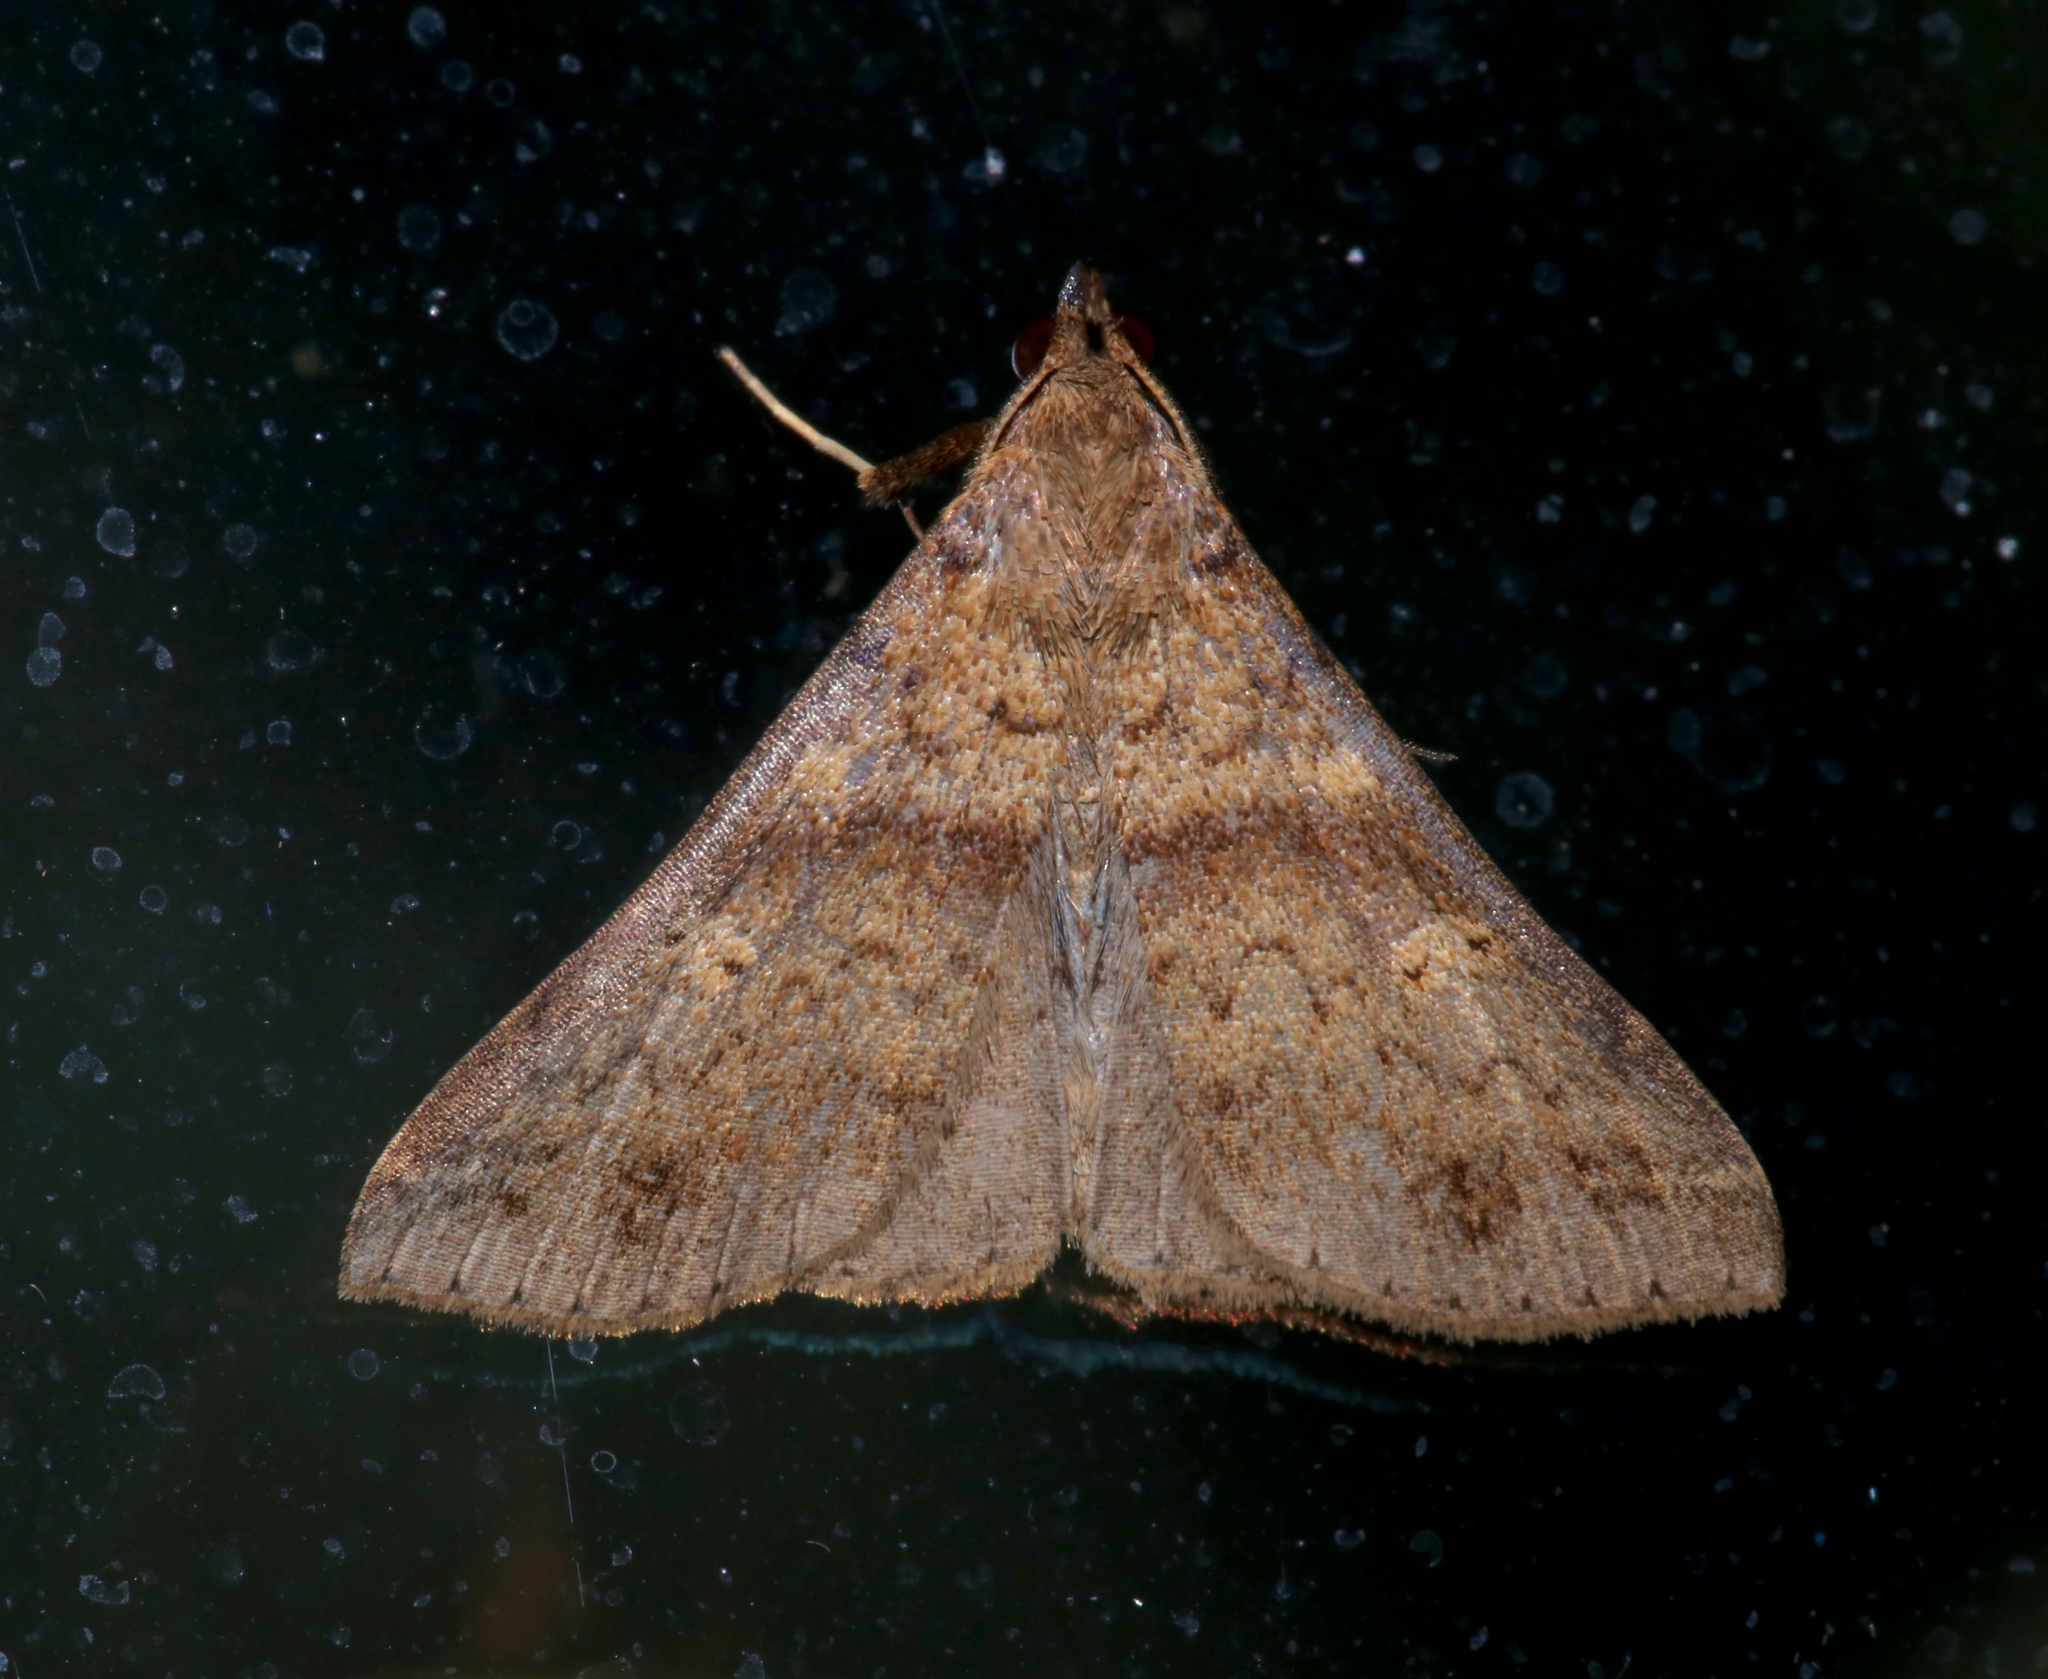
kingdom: Animalia
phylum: Arthropoda
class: Insecta
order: Lepidoptera
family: Erebidae
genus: Renia
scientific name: Renia discoloralis
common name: Discolored renia moth
